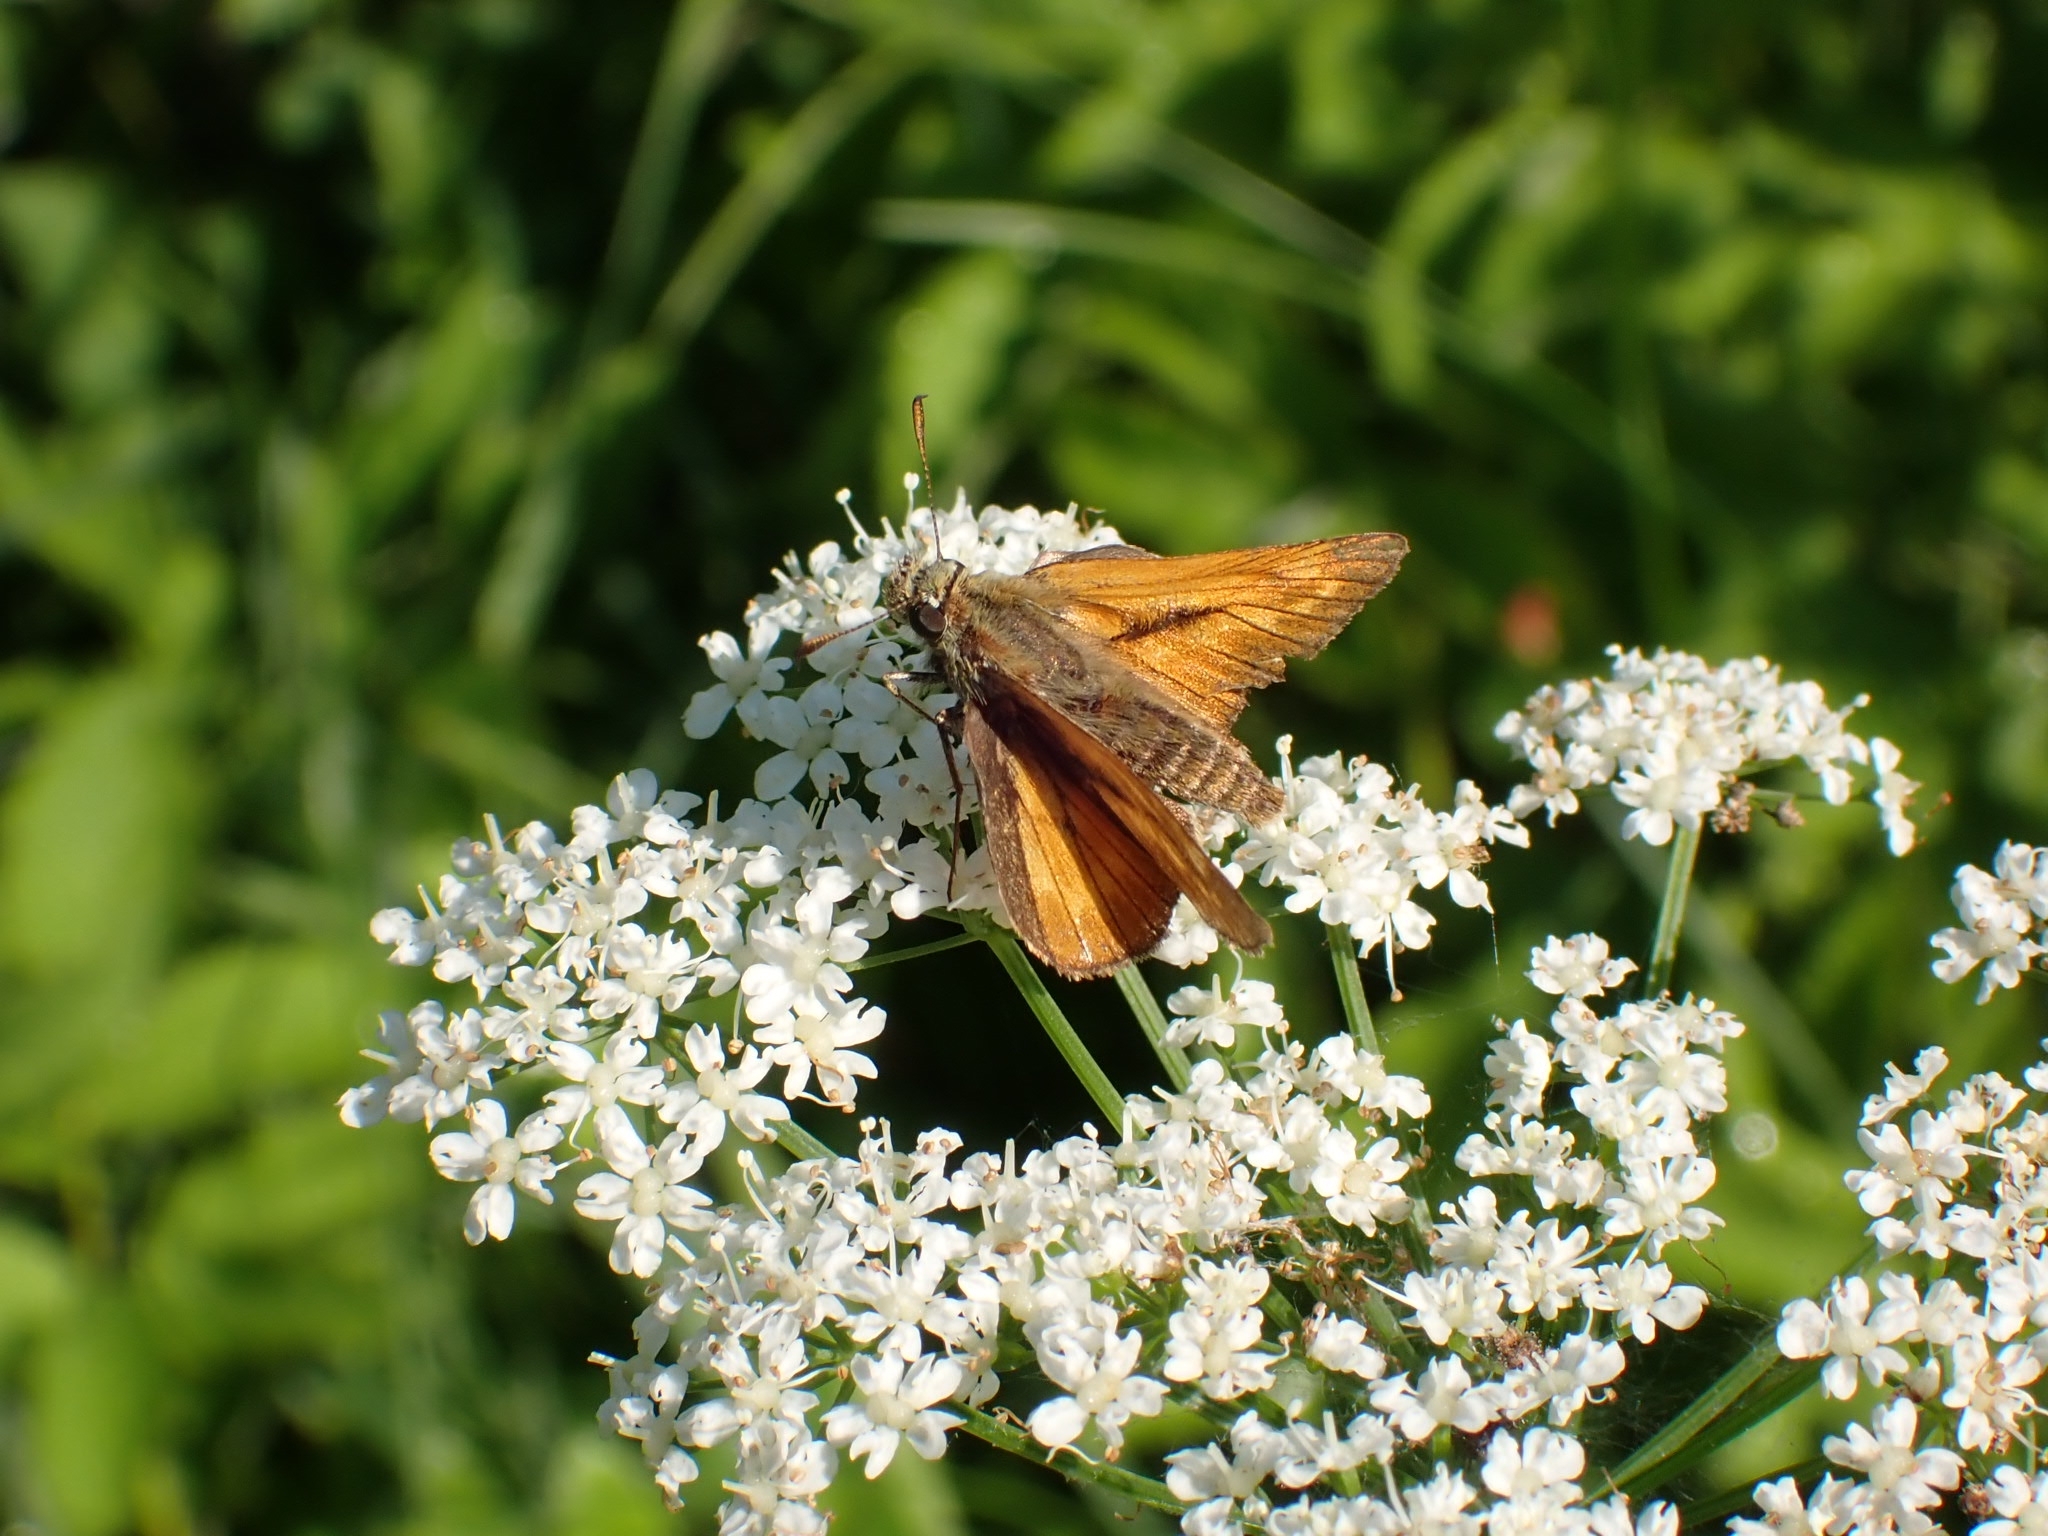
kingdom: Animalia
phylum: Arthropoda
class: Insecta
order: Lepidoptera
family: Hesperiidae
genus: Ochlodes
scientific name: Ochlodes venata
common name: Large skipper
